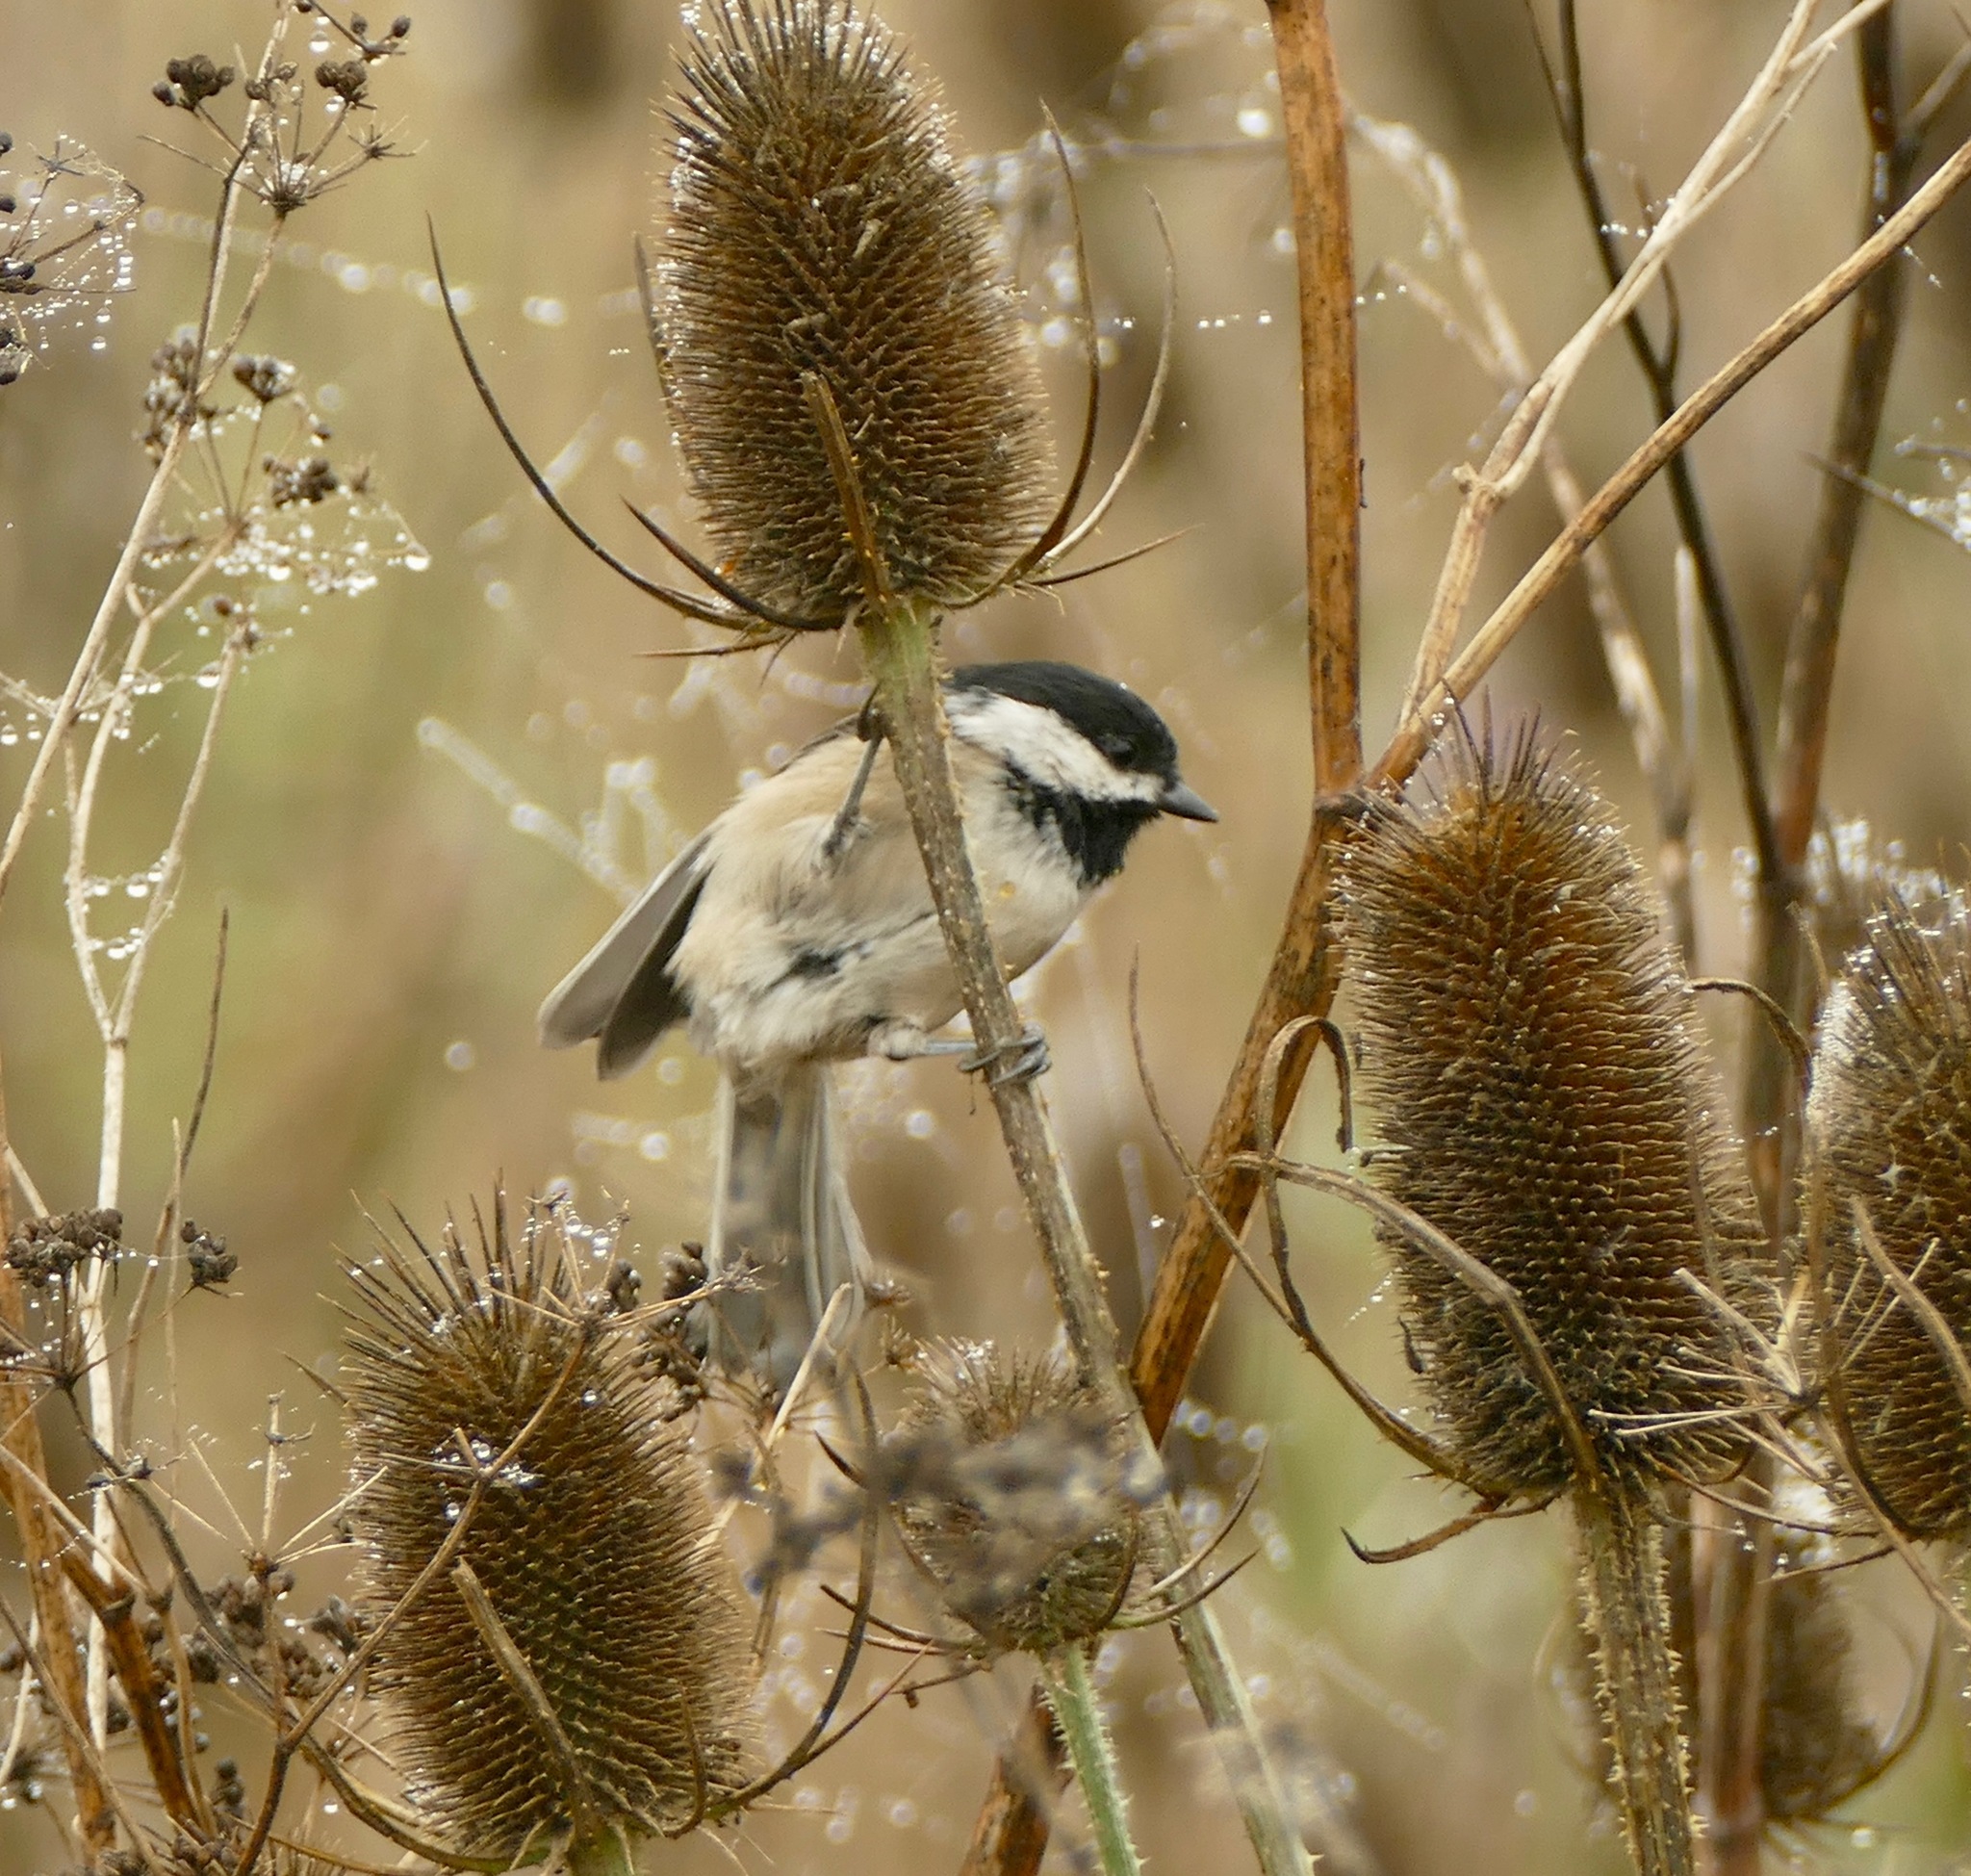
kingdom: Animalia
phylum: Chordata
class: Aves
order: Passeriformes
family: Paridae
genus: Poecile
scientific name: Poecile atricapillus
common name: Black-capped chickadee
